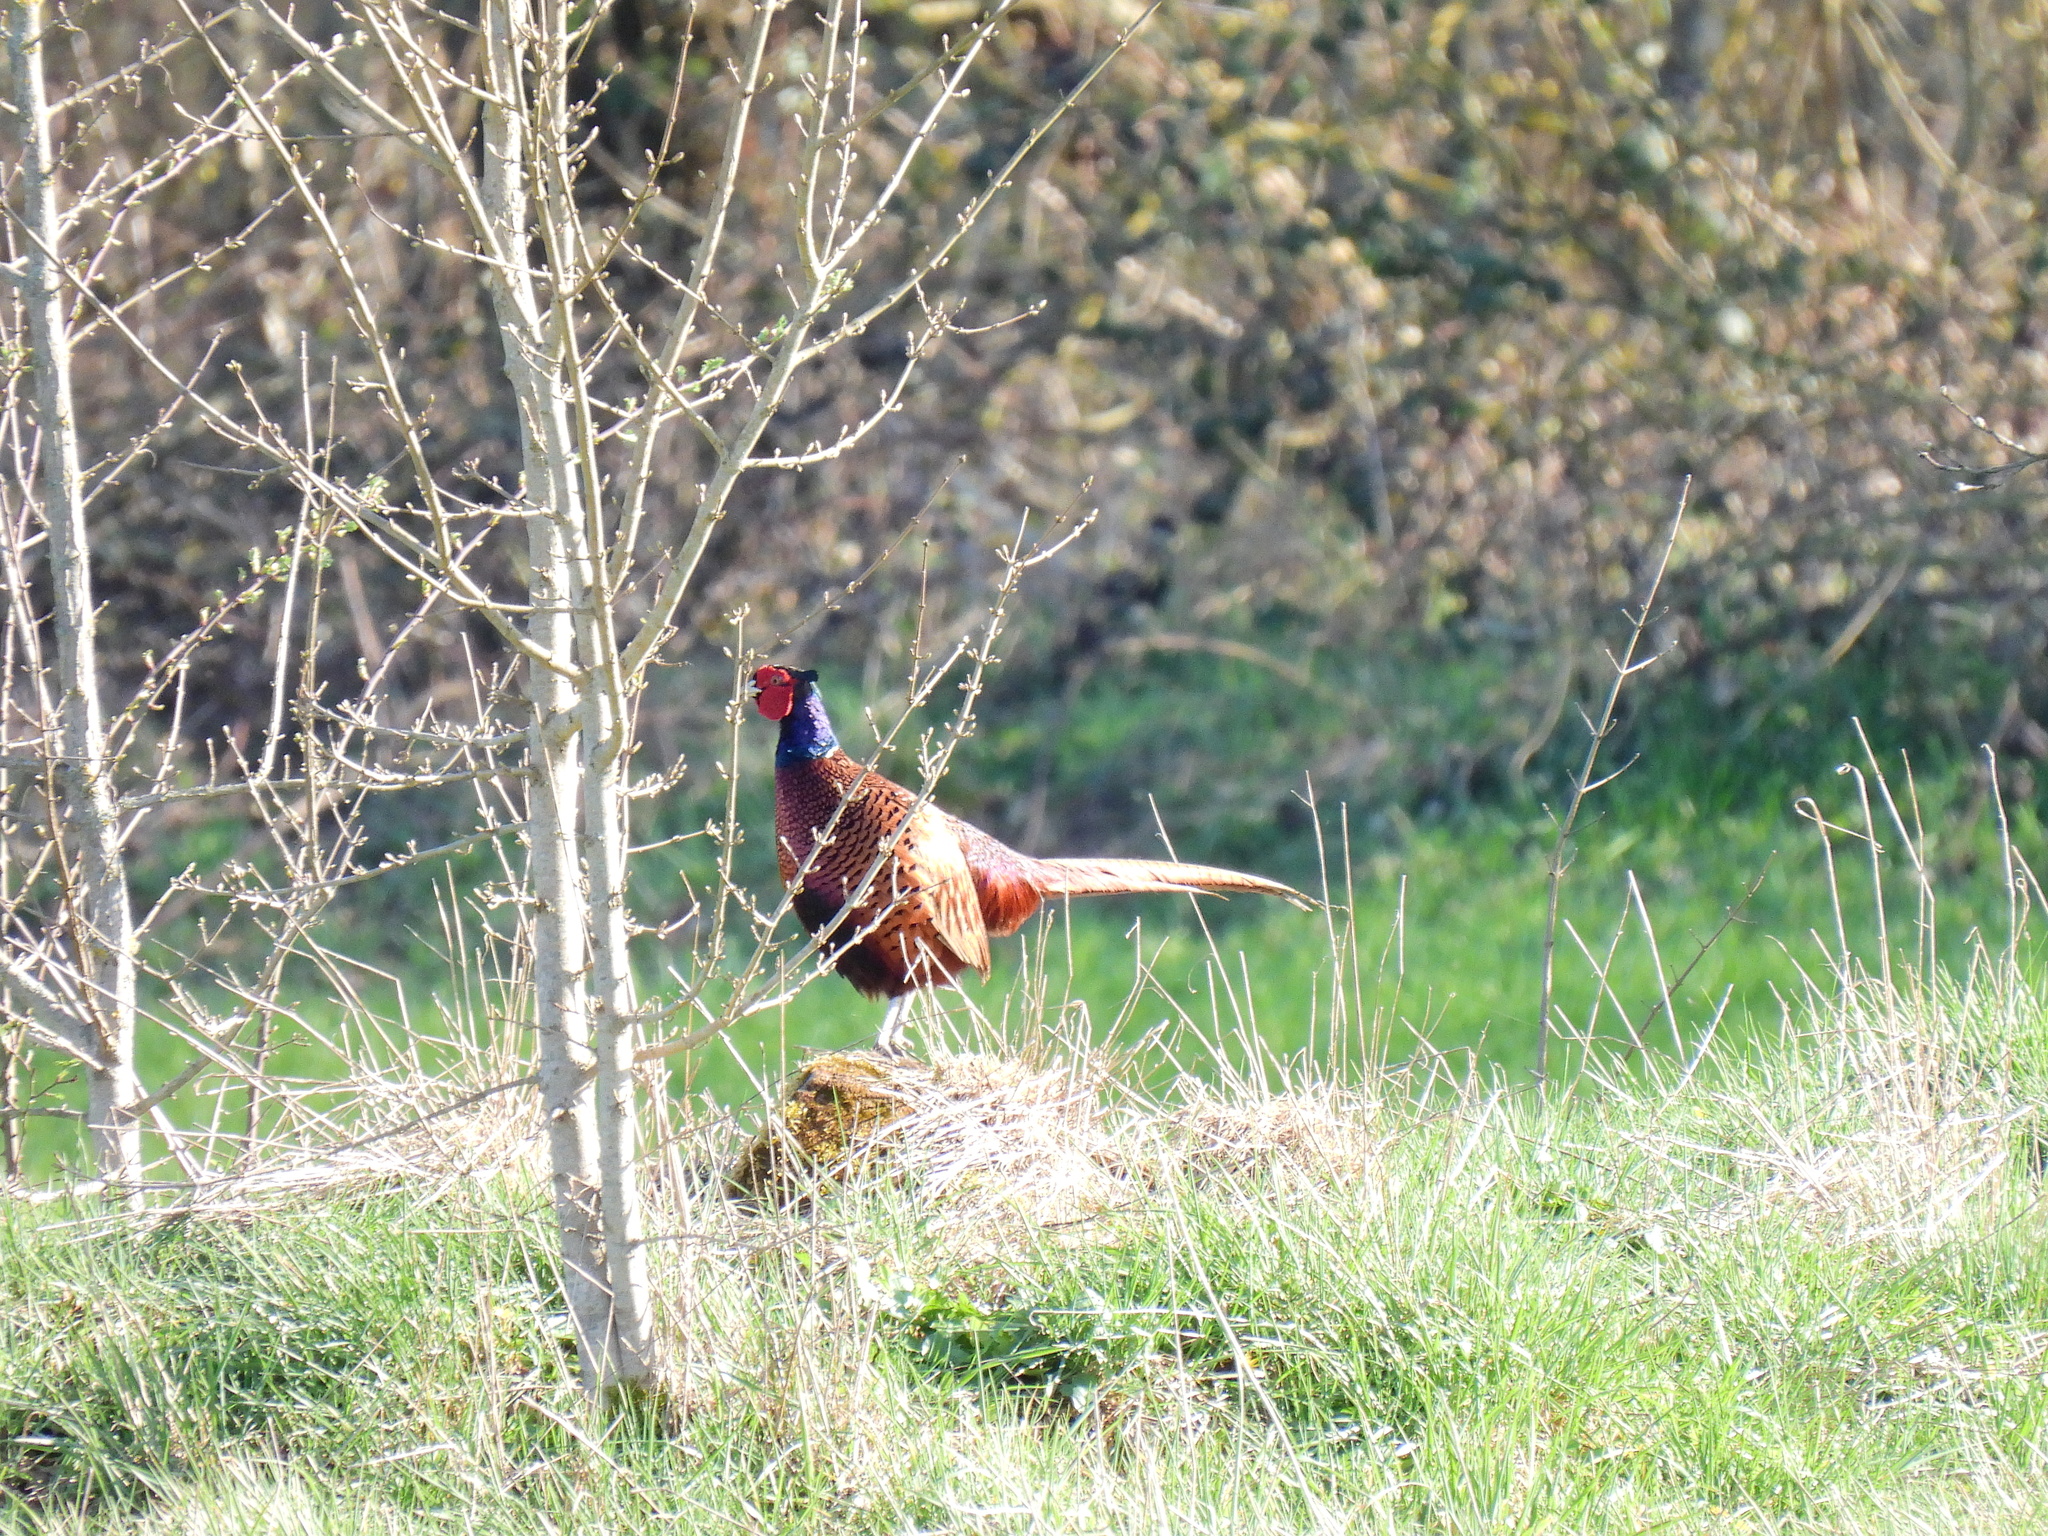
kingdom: Animalia
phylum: Chordata
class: Aves
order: Galliformes
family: Phasianidae
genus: Phasianus
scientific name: Phasianus colchicus
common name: Common pheasant
